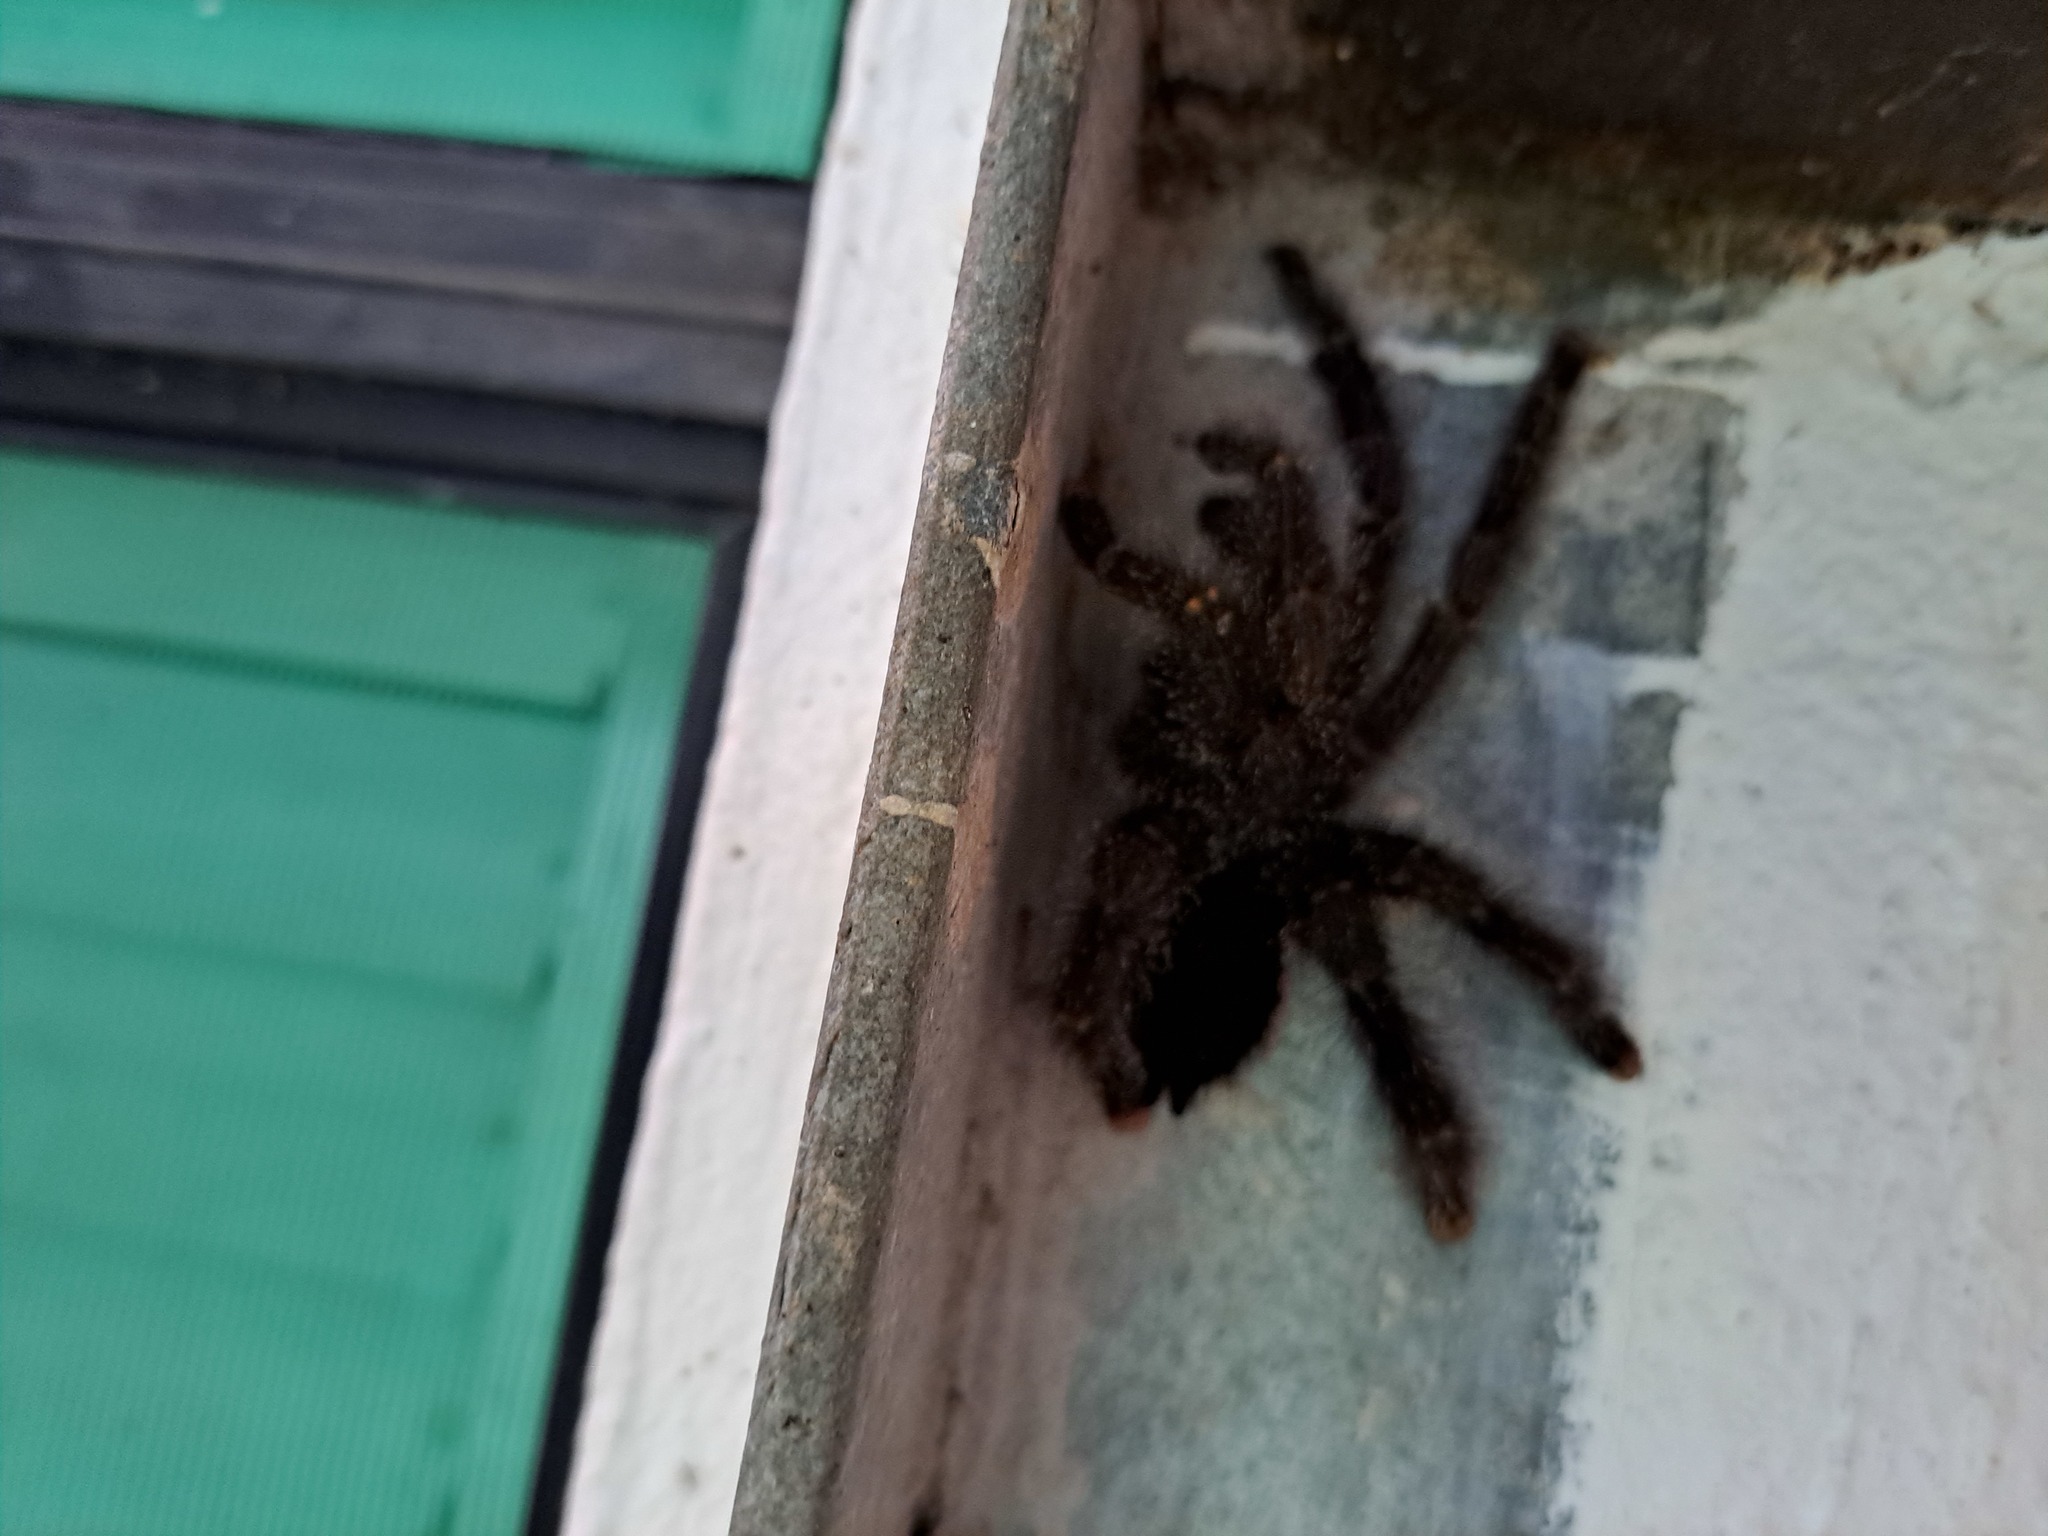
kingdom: Animalia
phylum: Arthropoda
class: Arachnida
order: Araneae
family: Theraphosidae
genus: Avicularia
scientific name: Avicularia juruensis
